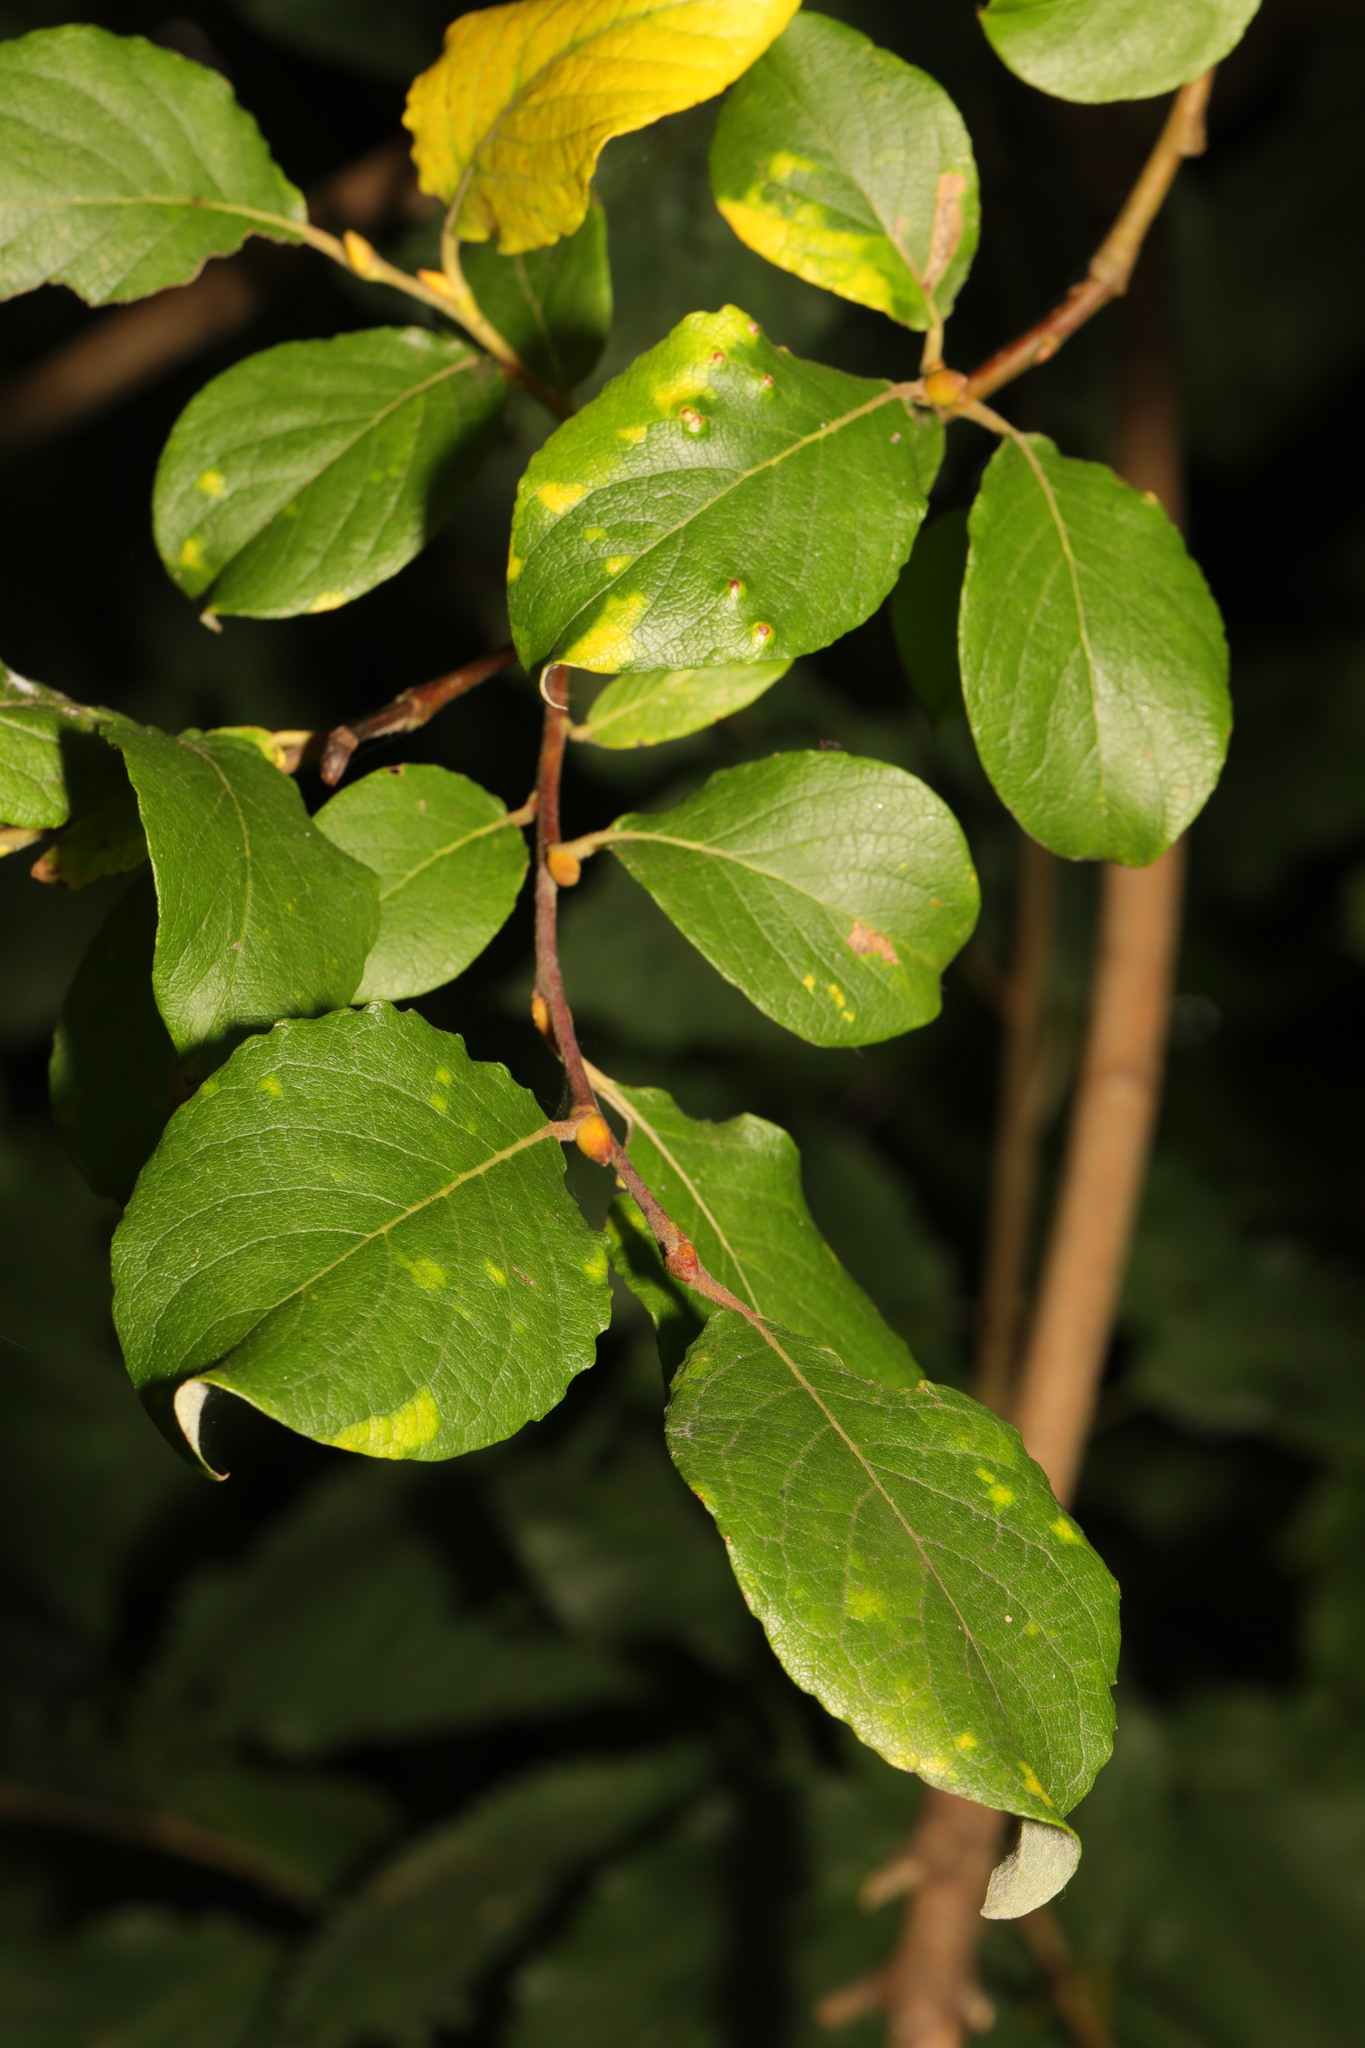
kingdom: Plantae
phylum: Tracheophyta
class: Magnoliopsida
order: Malpighiales
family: Salicaceae
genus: Salix
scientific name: Salix caprea
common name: Goat willow
